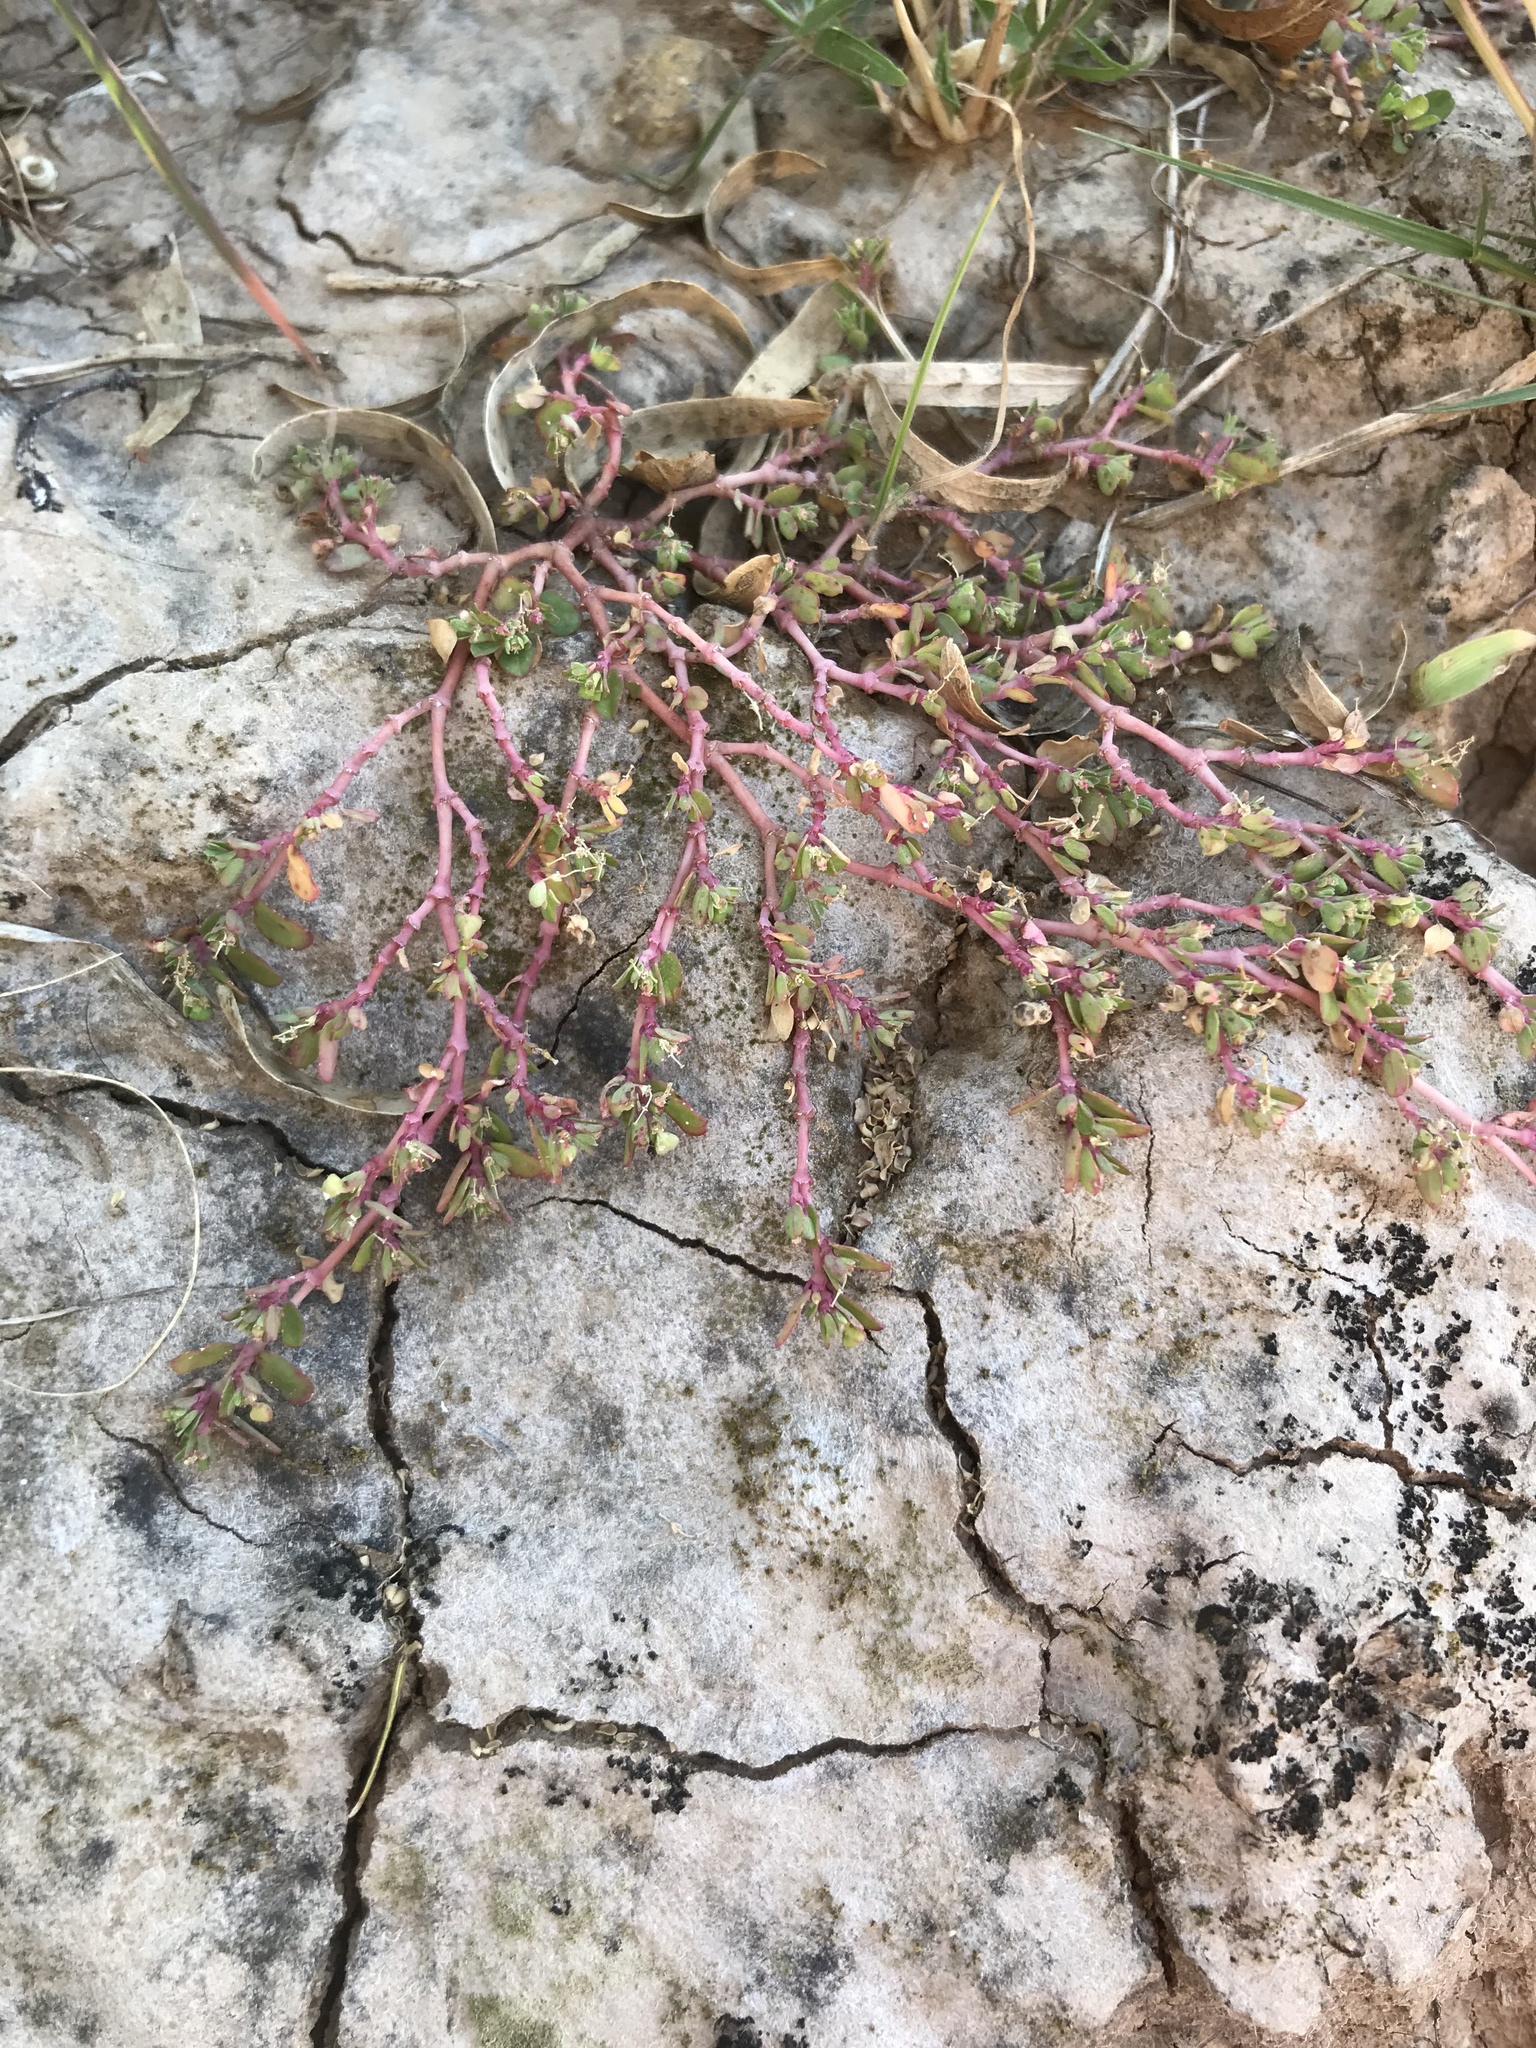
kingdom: Plantae
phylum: Tracheophyta
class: Magnoliopsida
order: Malpighiales
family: Euphorbiaceae
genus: Euphorbia
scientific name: Euphorbia serpens
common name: Matted sandmat
